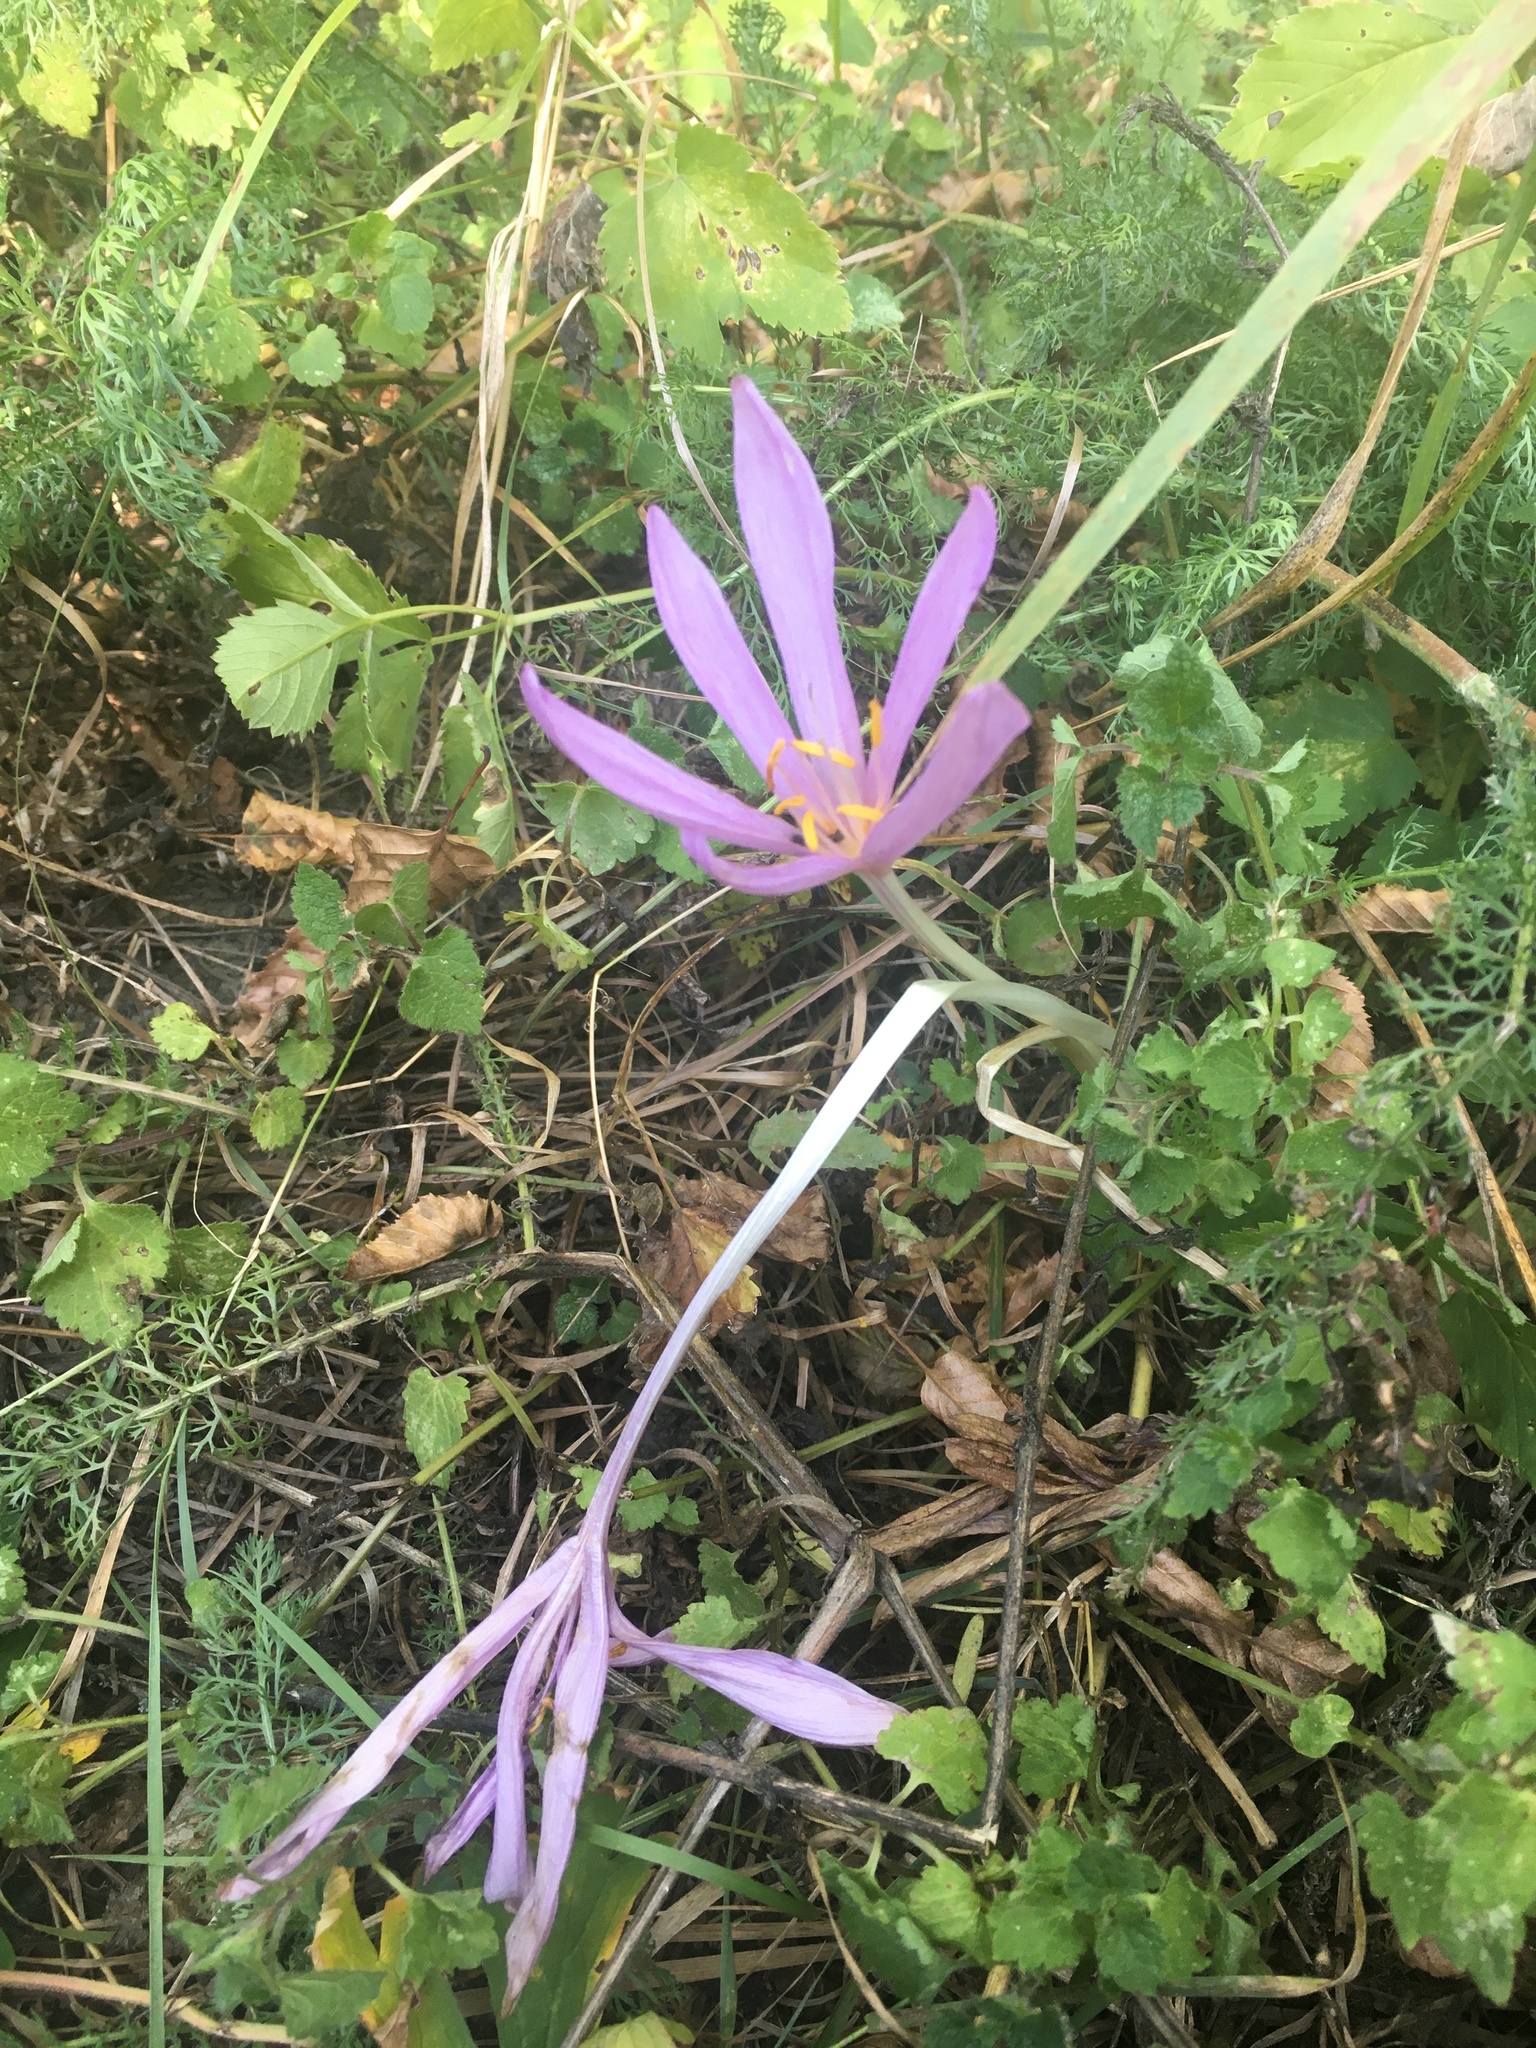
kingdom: Plantae
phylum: Tracheophyta
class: Liliopsida
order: Liliales
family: Colchicaceae
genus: Colchicum
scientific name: Colchicum autumnale
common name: Autumn crocus
